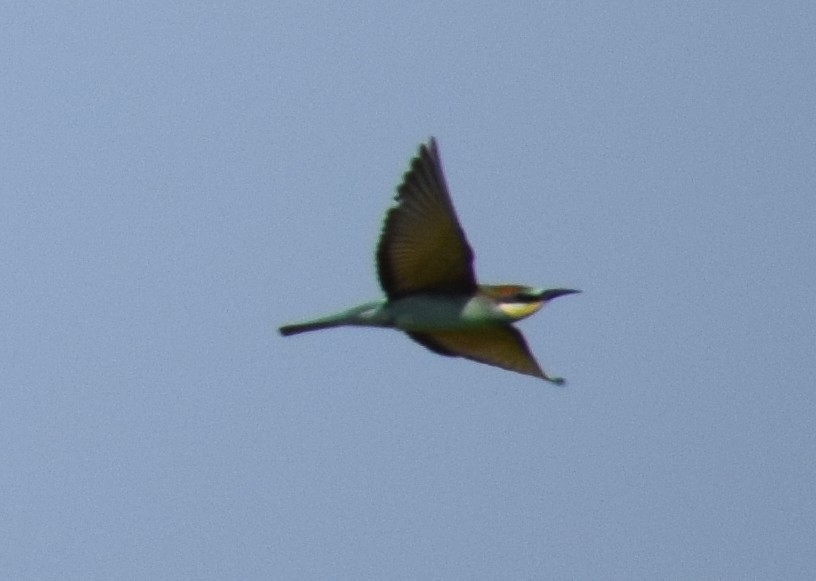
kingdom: Animalia
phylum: Chordata
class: Aves
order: Coraciiformes
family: Meropidae
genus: Merops
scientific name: Merops apiaster
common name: European bee-eater
